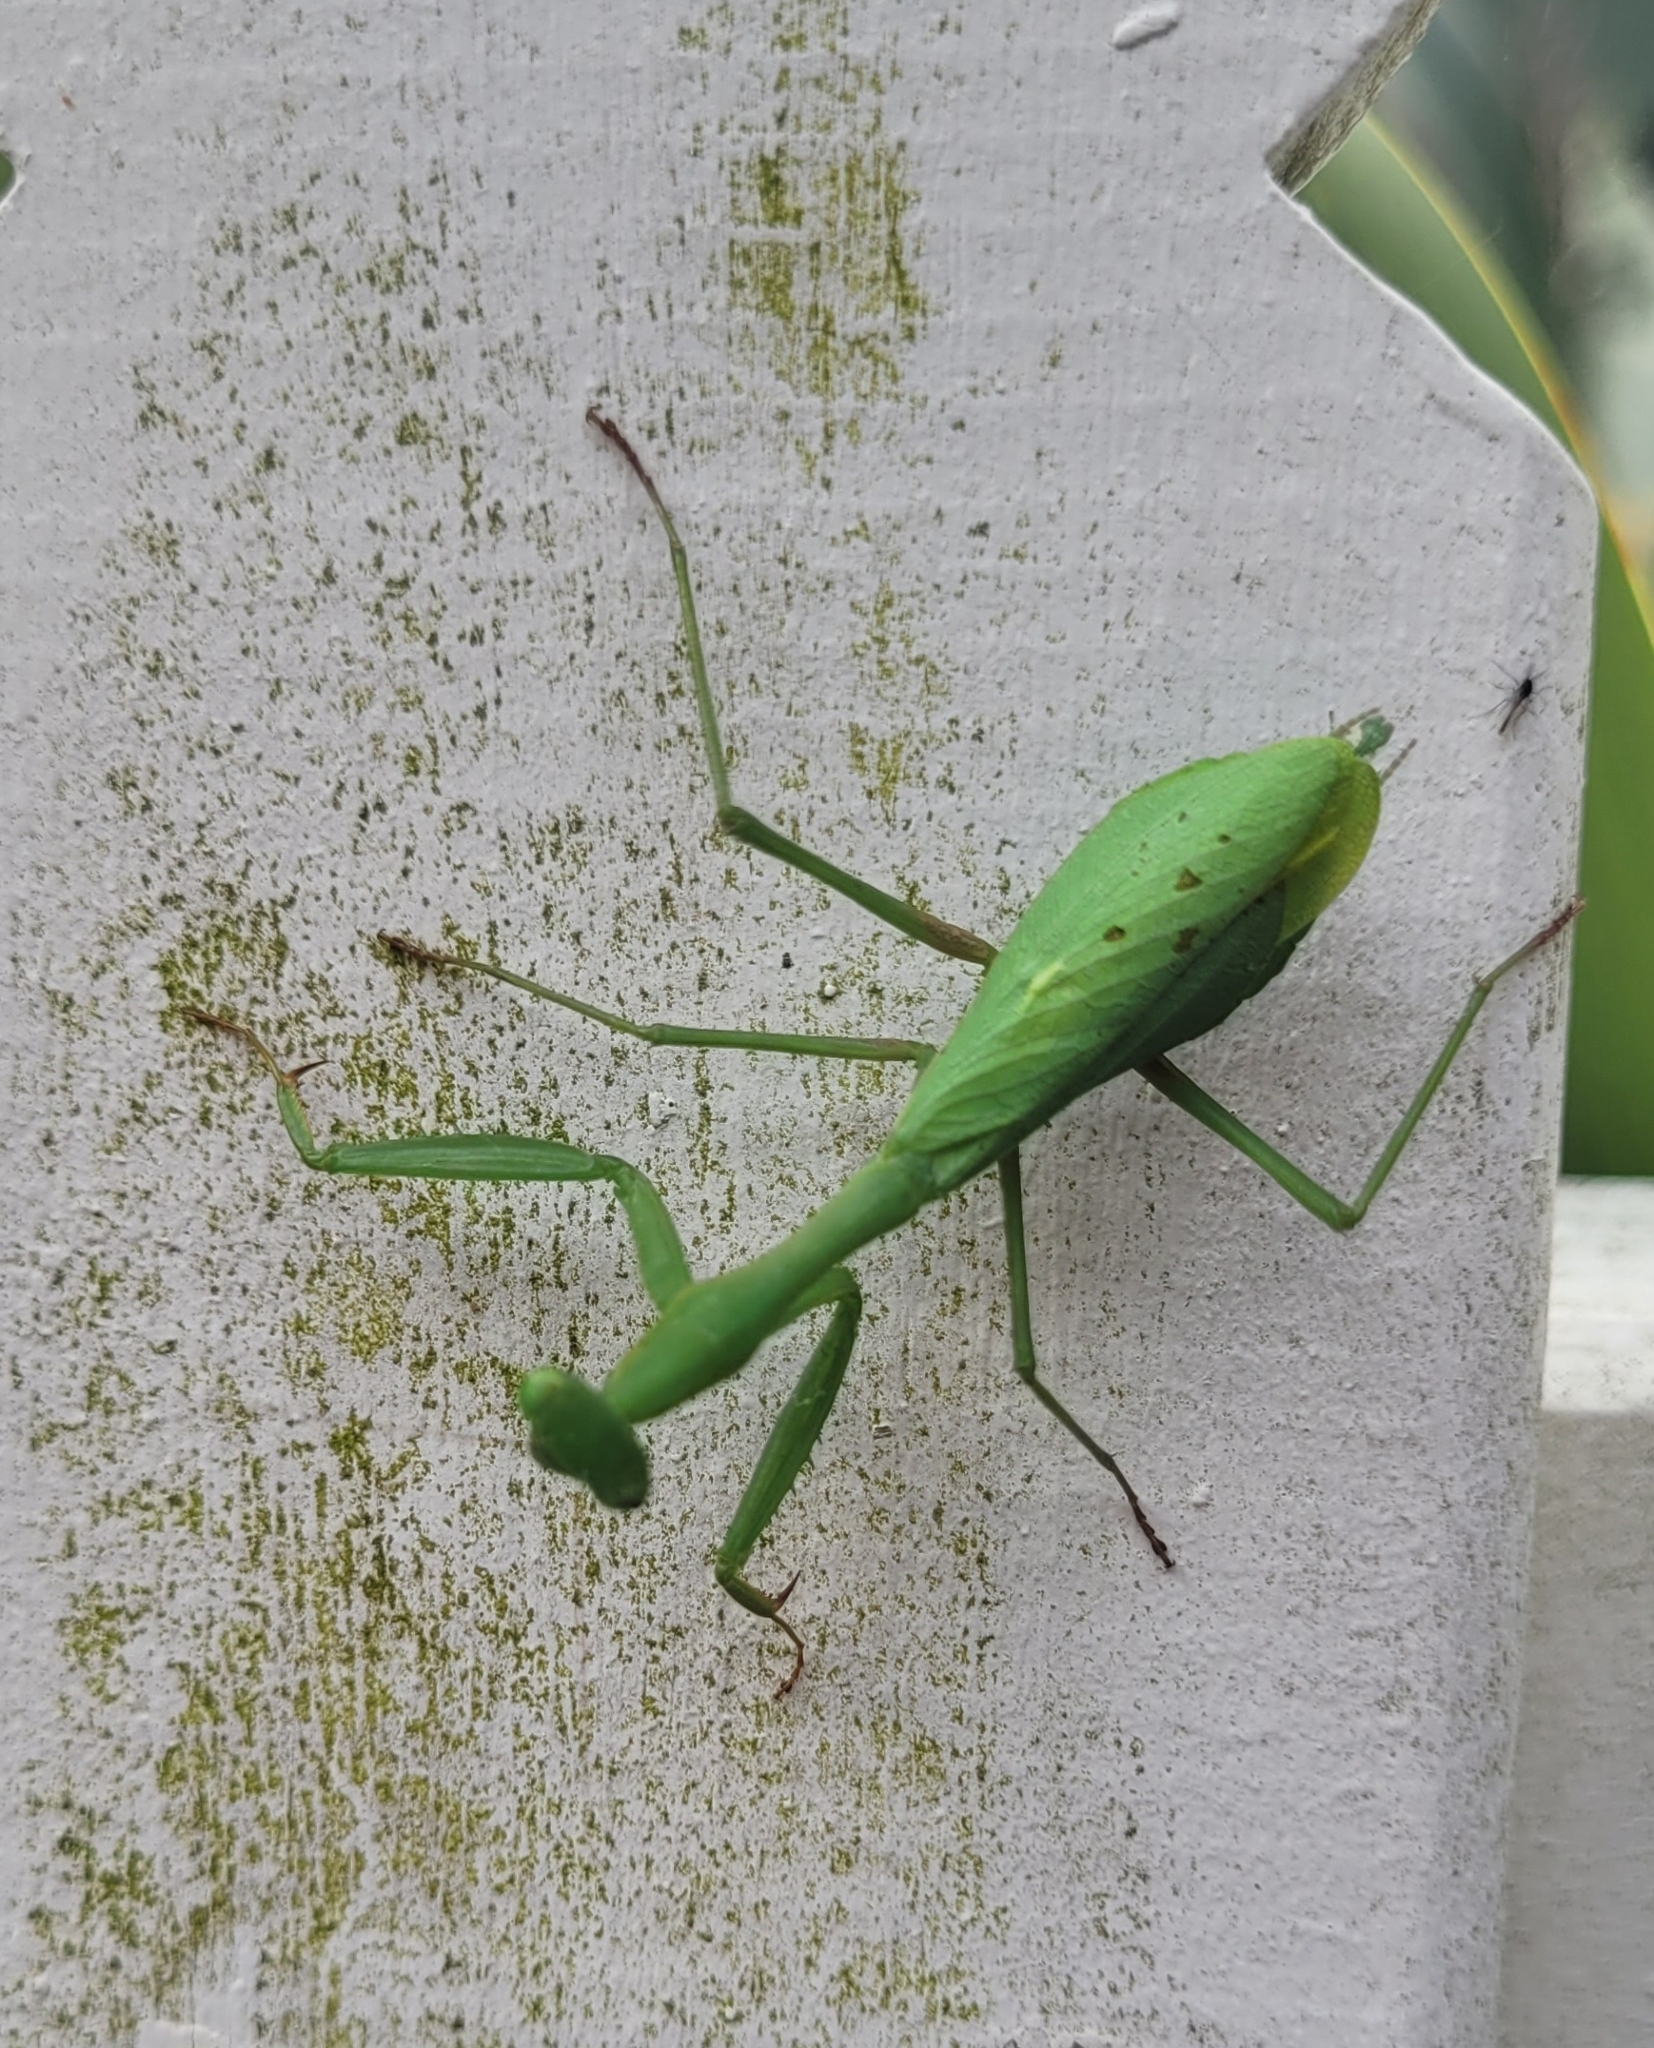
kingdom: Animalia
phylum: Arthropoda
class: Insecta
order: Mantodea
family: Miomantidae
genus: Miomantis
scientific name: Miomantis caffra
